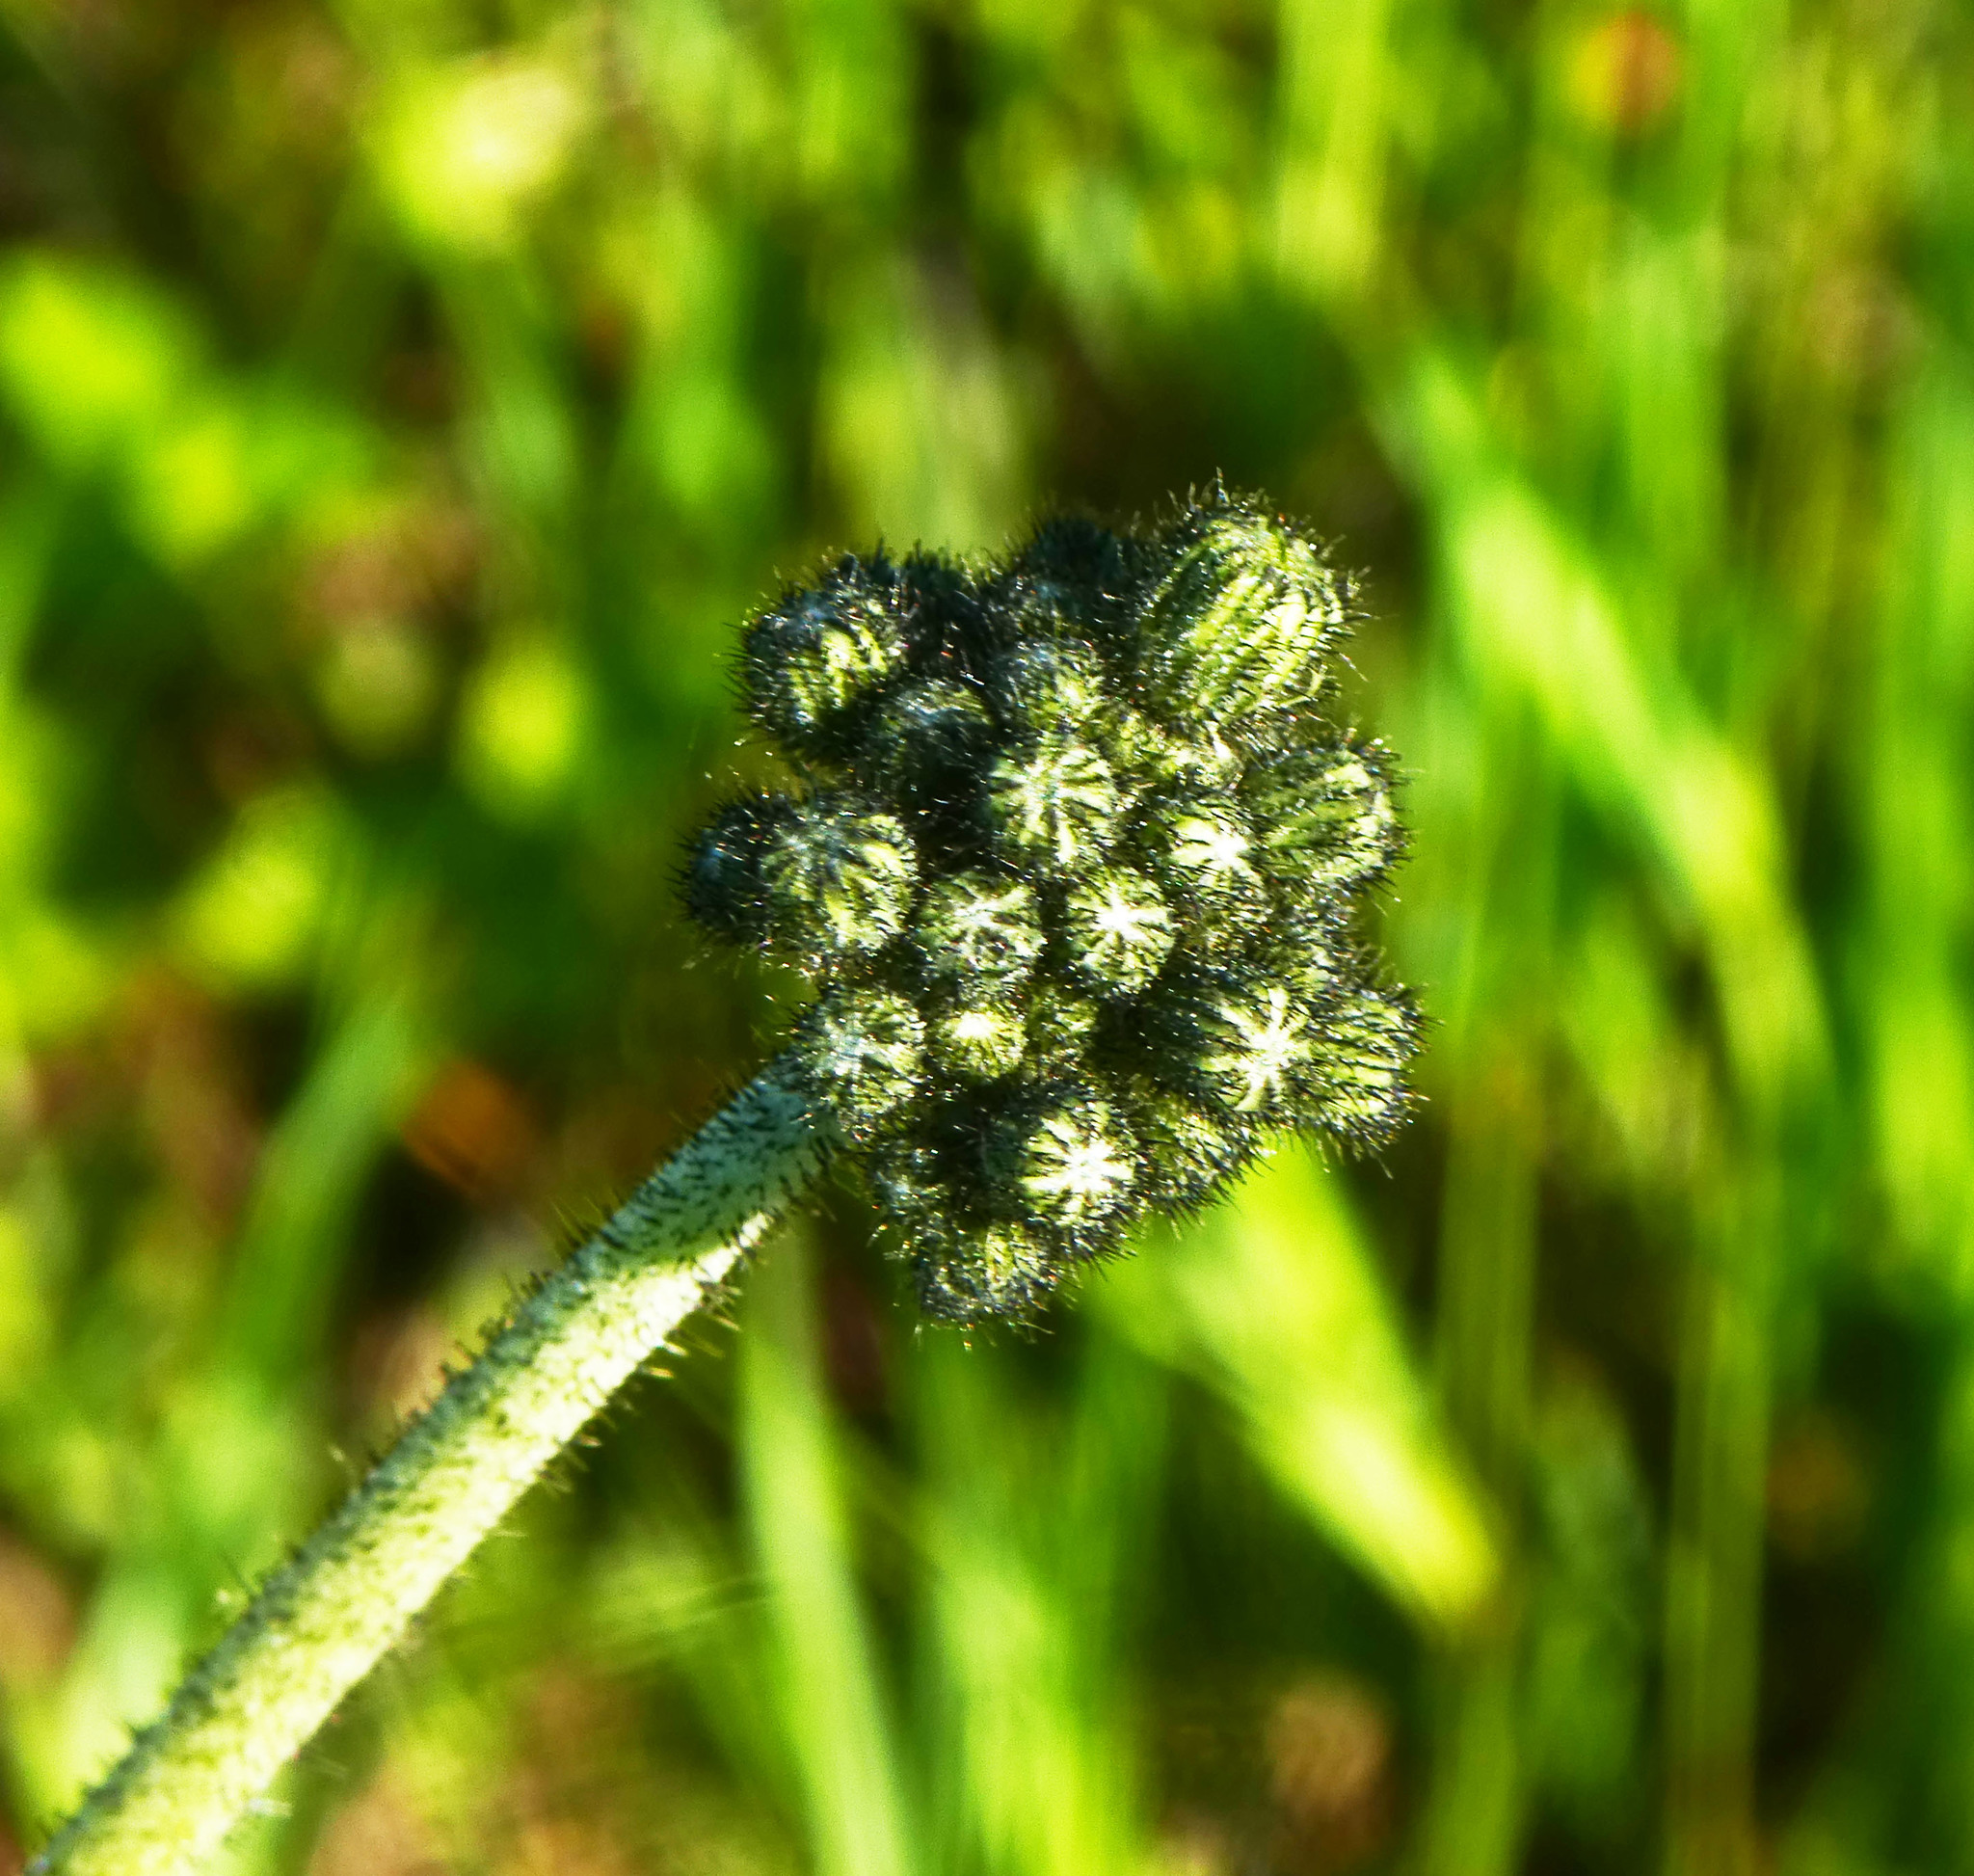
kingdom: Plantae
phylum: Tracheophyta
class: Magnoliopsida
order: Asterales
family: Asteraceae
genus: Pilosella
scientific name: Pilosella
